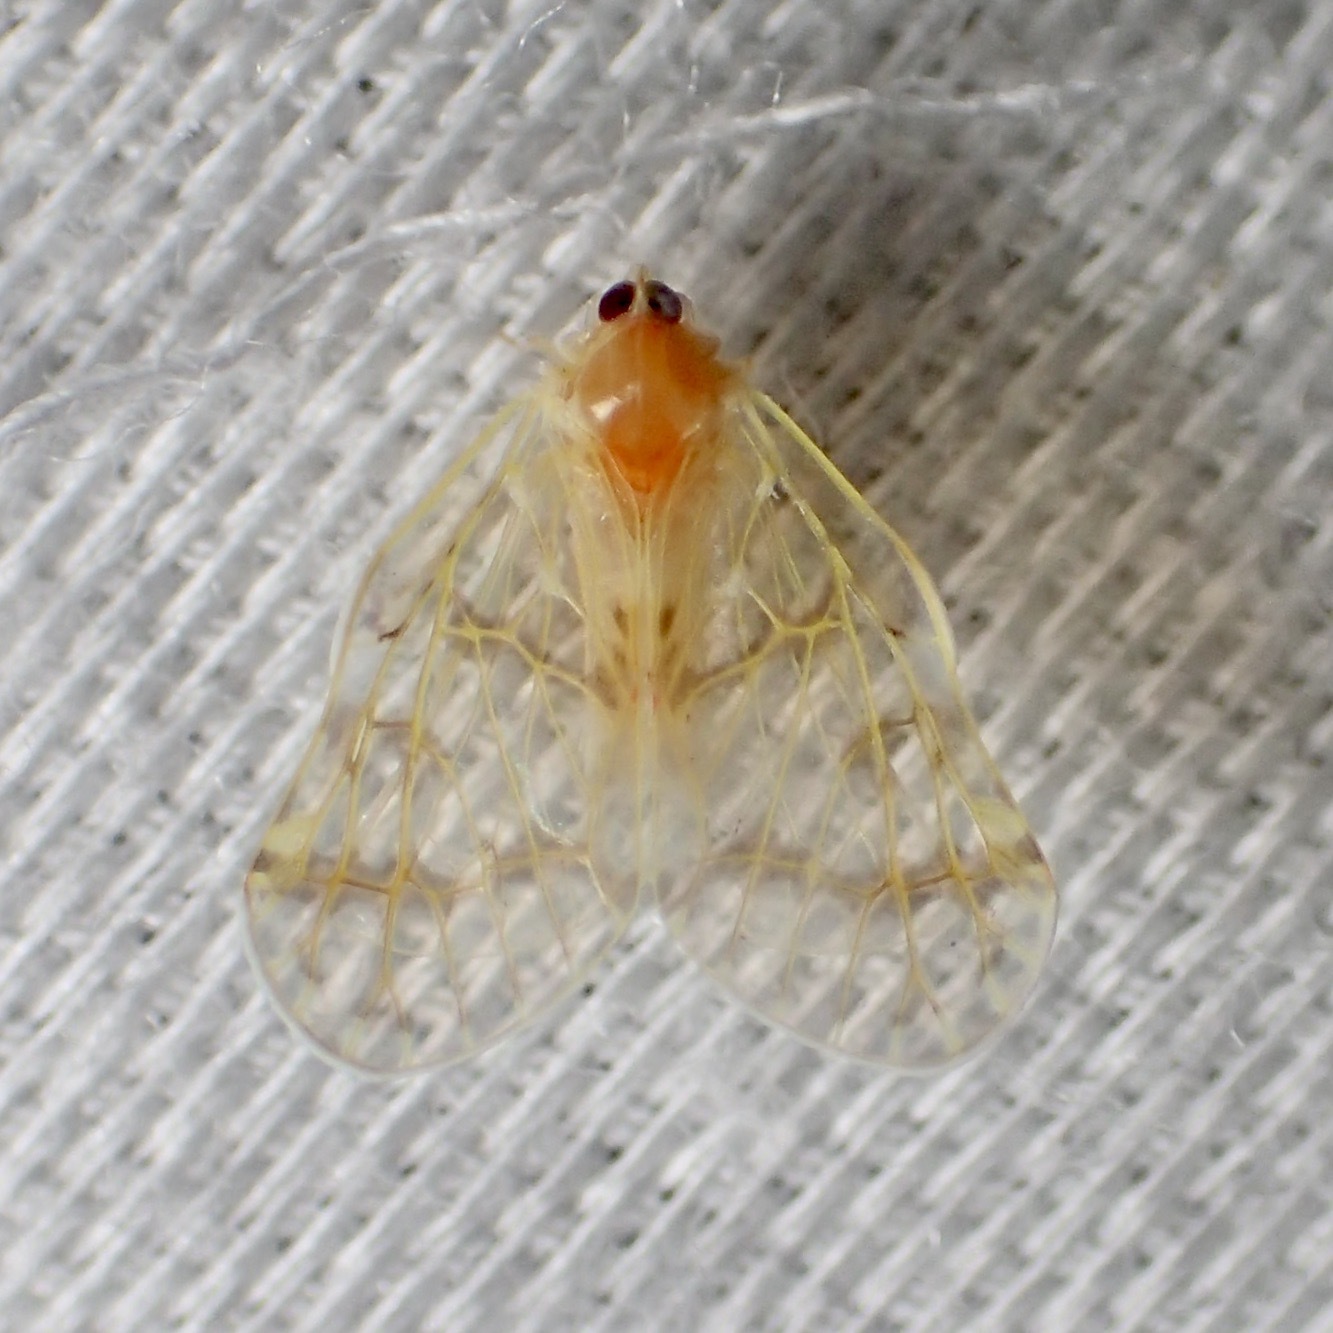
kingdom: Animalia
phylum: Arthropoda
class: Insecta
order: Hemiptera
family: Derbidae
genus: Saccharodite
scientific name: Saccharodite chrysonoe
